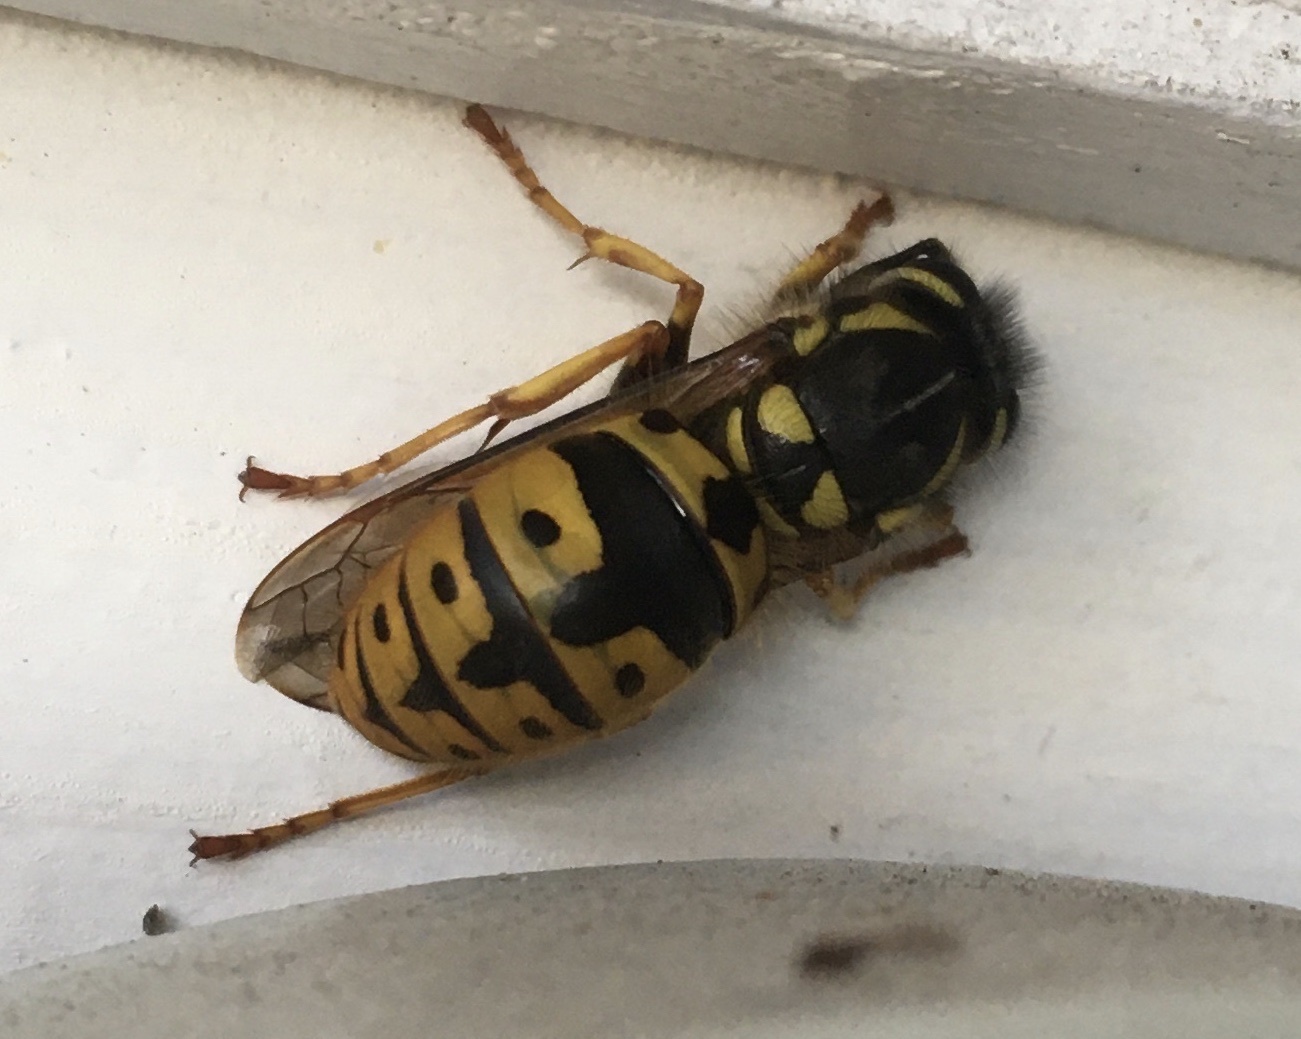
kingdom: Animalia
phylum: Arthropoda
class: Insecta
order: Hymenoptera
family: Vespidae
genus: Vespula
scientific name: Vespula germanica
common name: German wasp
